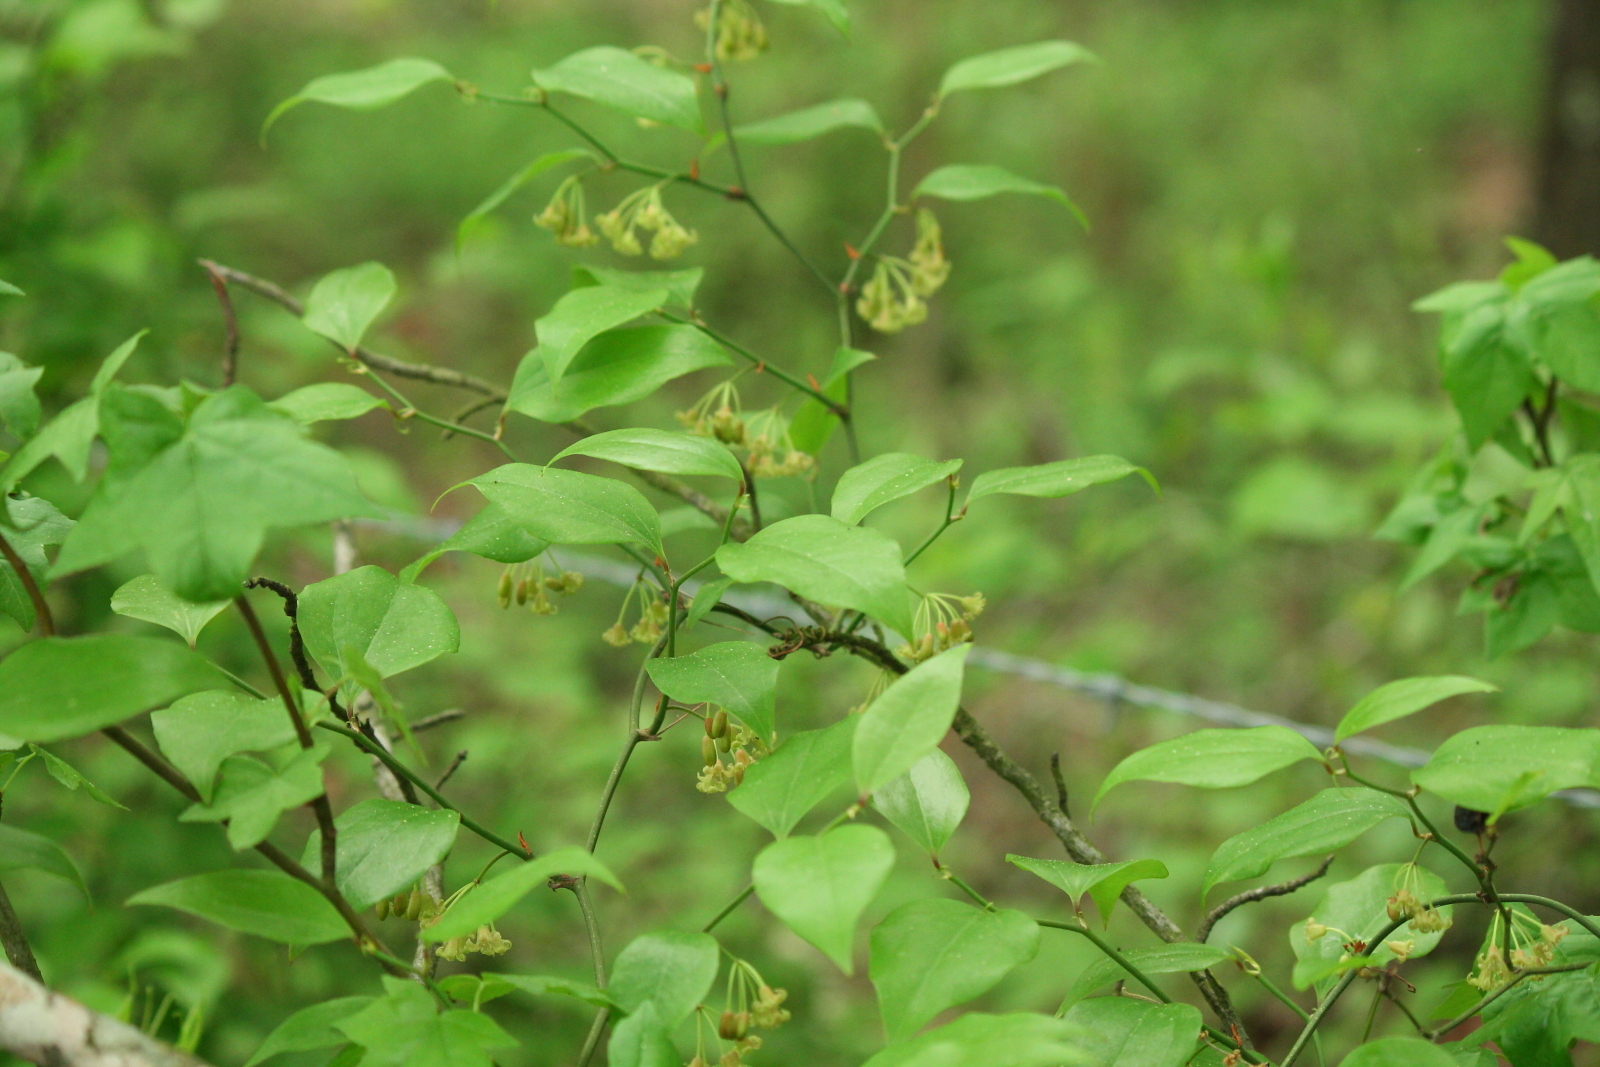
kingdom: Plantae
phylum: Tracheophyta
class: Liliopsida
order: Liliales
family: Smilacaceae
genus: Smilax
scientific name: Smilax rotundifolia
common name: Bullbriar
